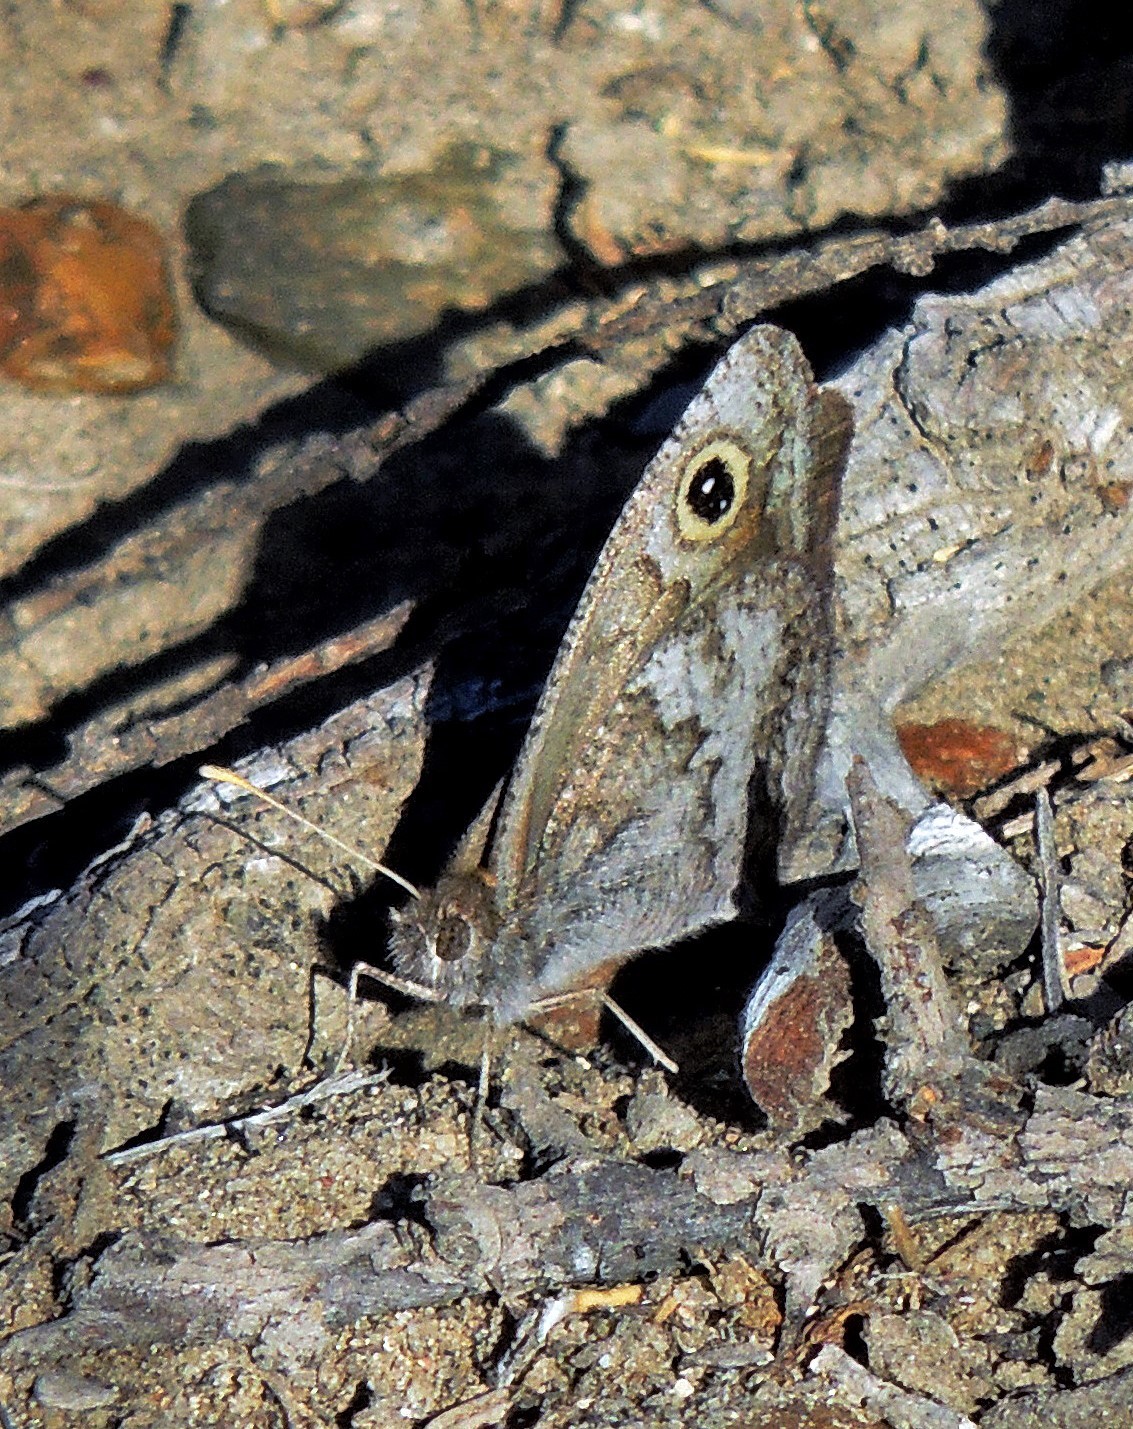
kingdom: Animalia
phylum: Arthropoda
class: Insecta
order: Lepidoptera
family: Nymphalidae
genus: Pampasatyrus
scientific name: Pampasatyrus yacantoensis
